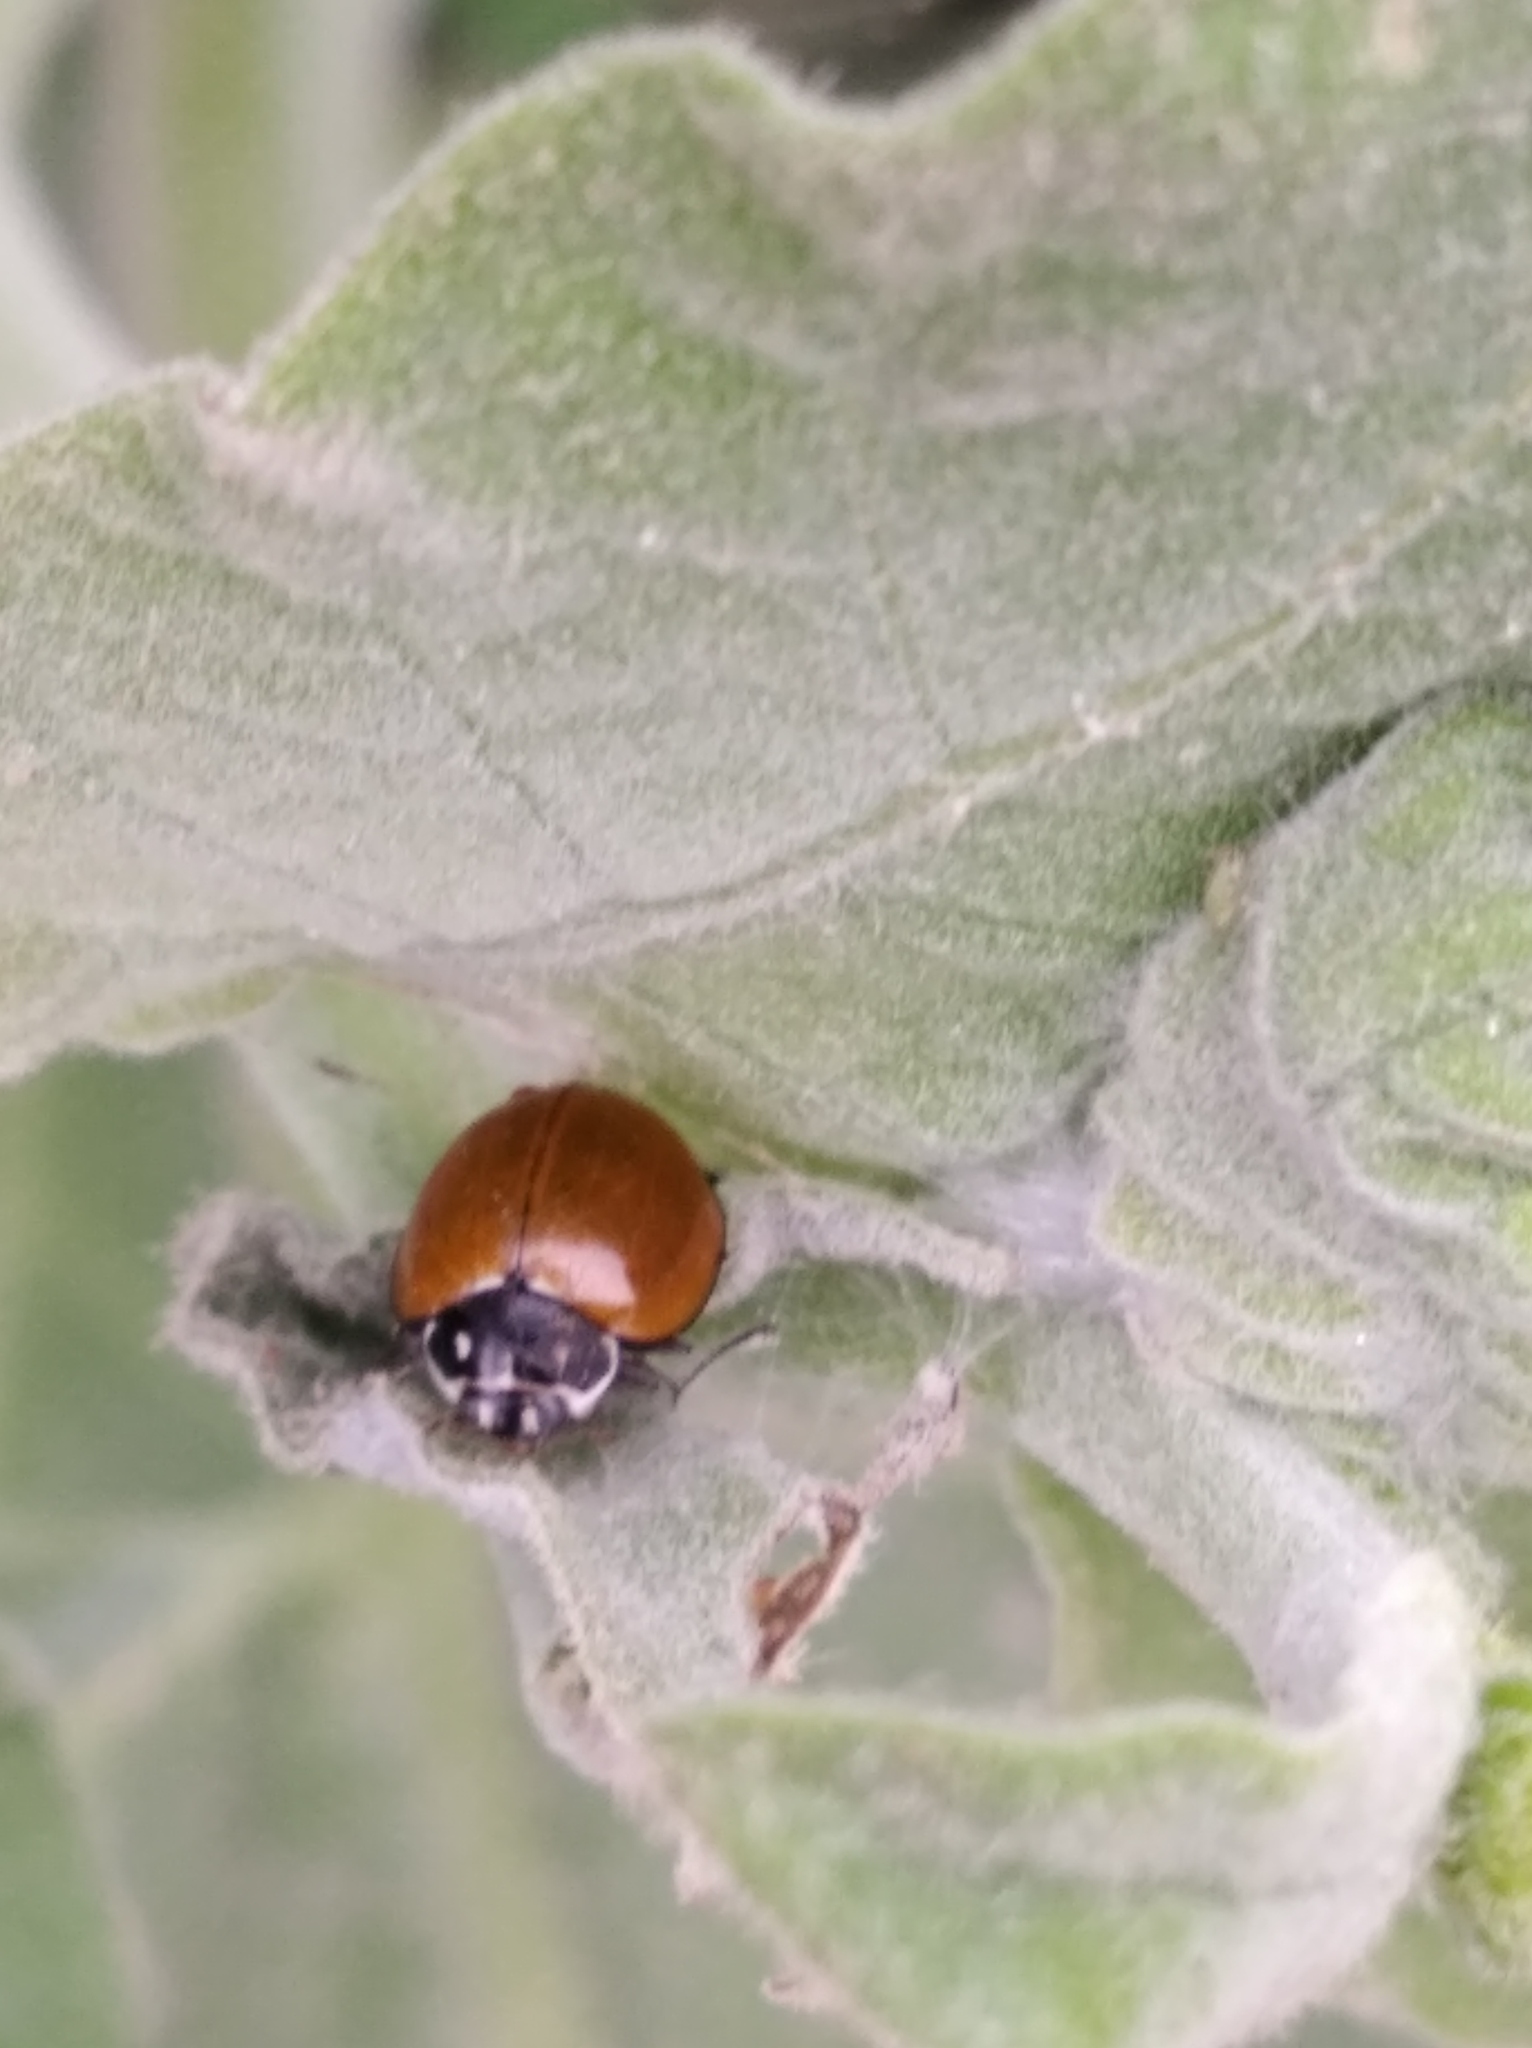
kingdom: Animalia
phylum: Arthropoda
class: Insecta
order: Coleoptera
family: Coccinellidae
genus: Cycloneda
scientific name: Cycloneda sanguinea
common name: Ladybird beetle
